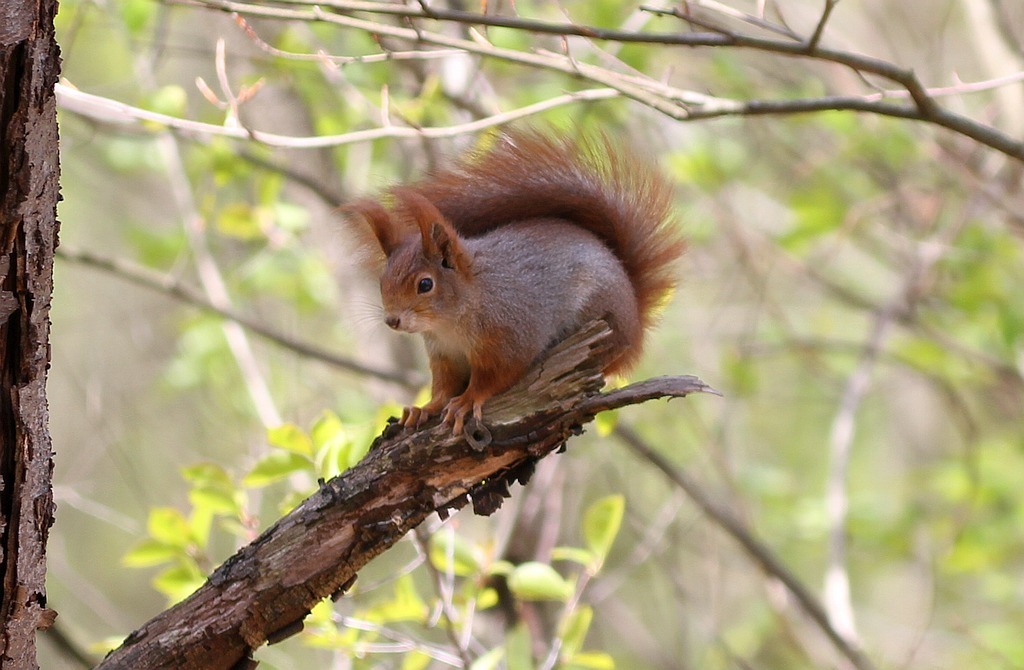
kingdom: Animalia
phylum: Chordata
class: Mammalia
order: Rodentia
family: Sciuridae
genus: Sciurus
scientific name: Sciurus vulgaris
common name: Eurasian red squirrel
